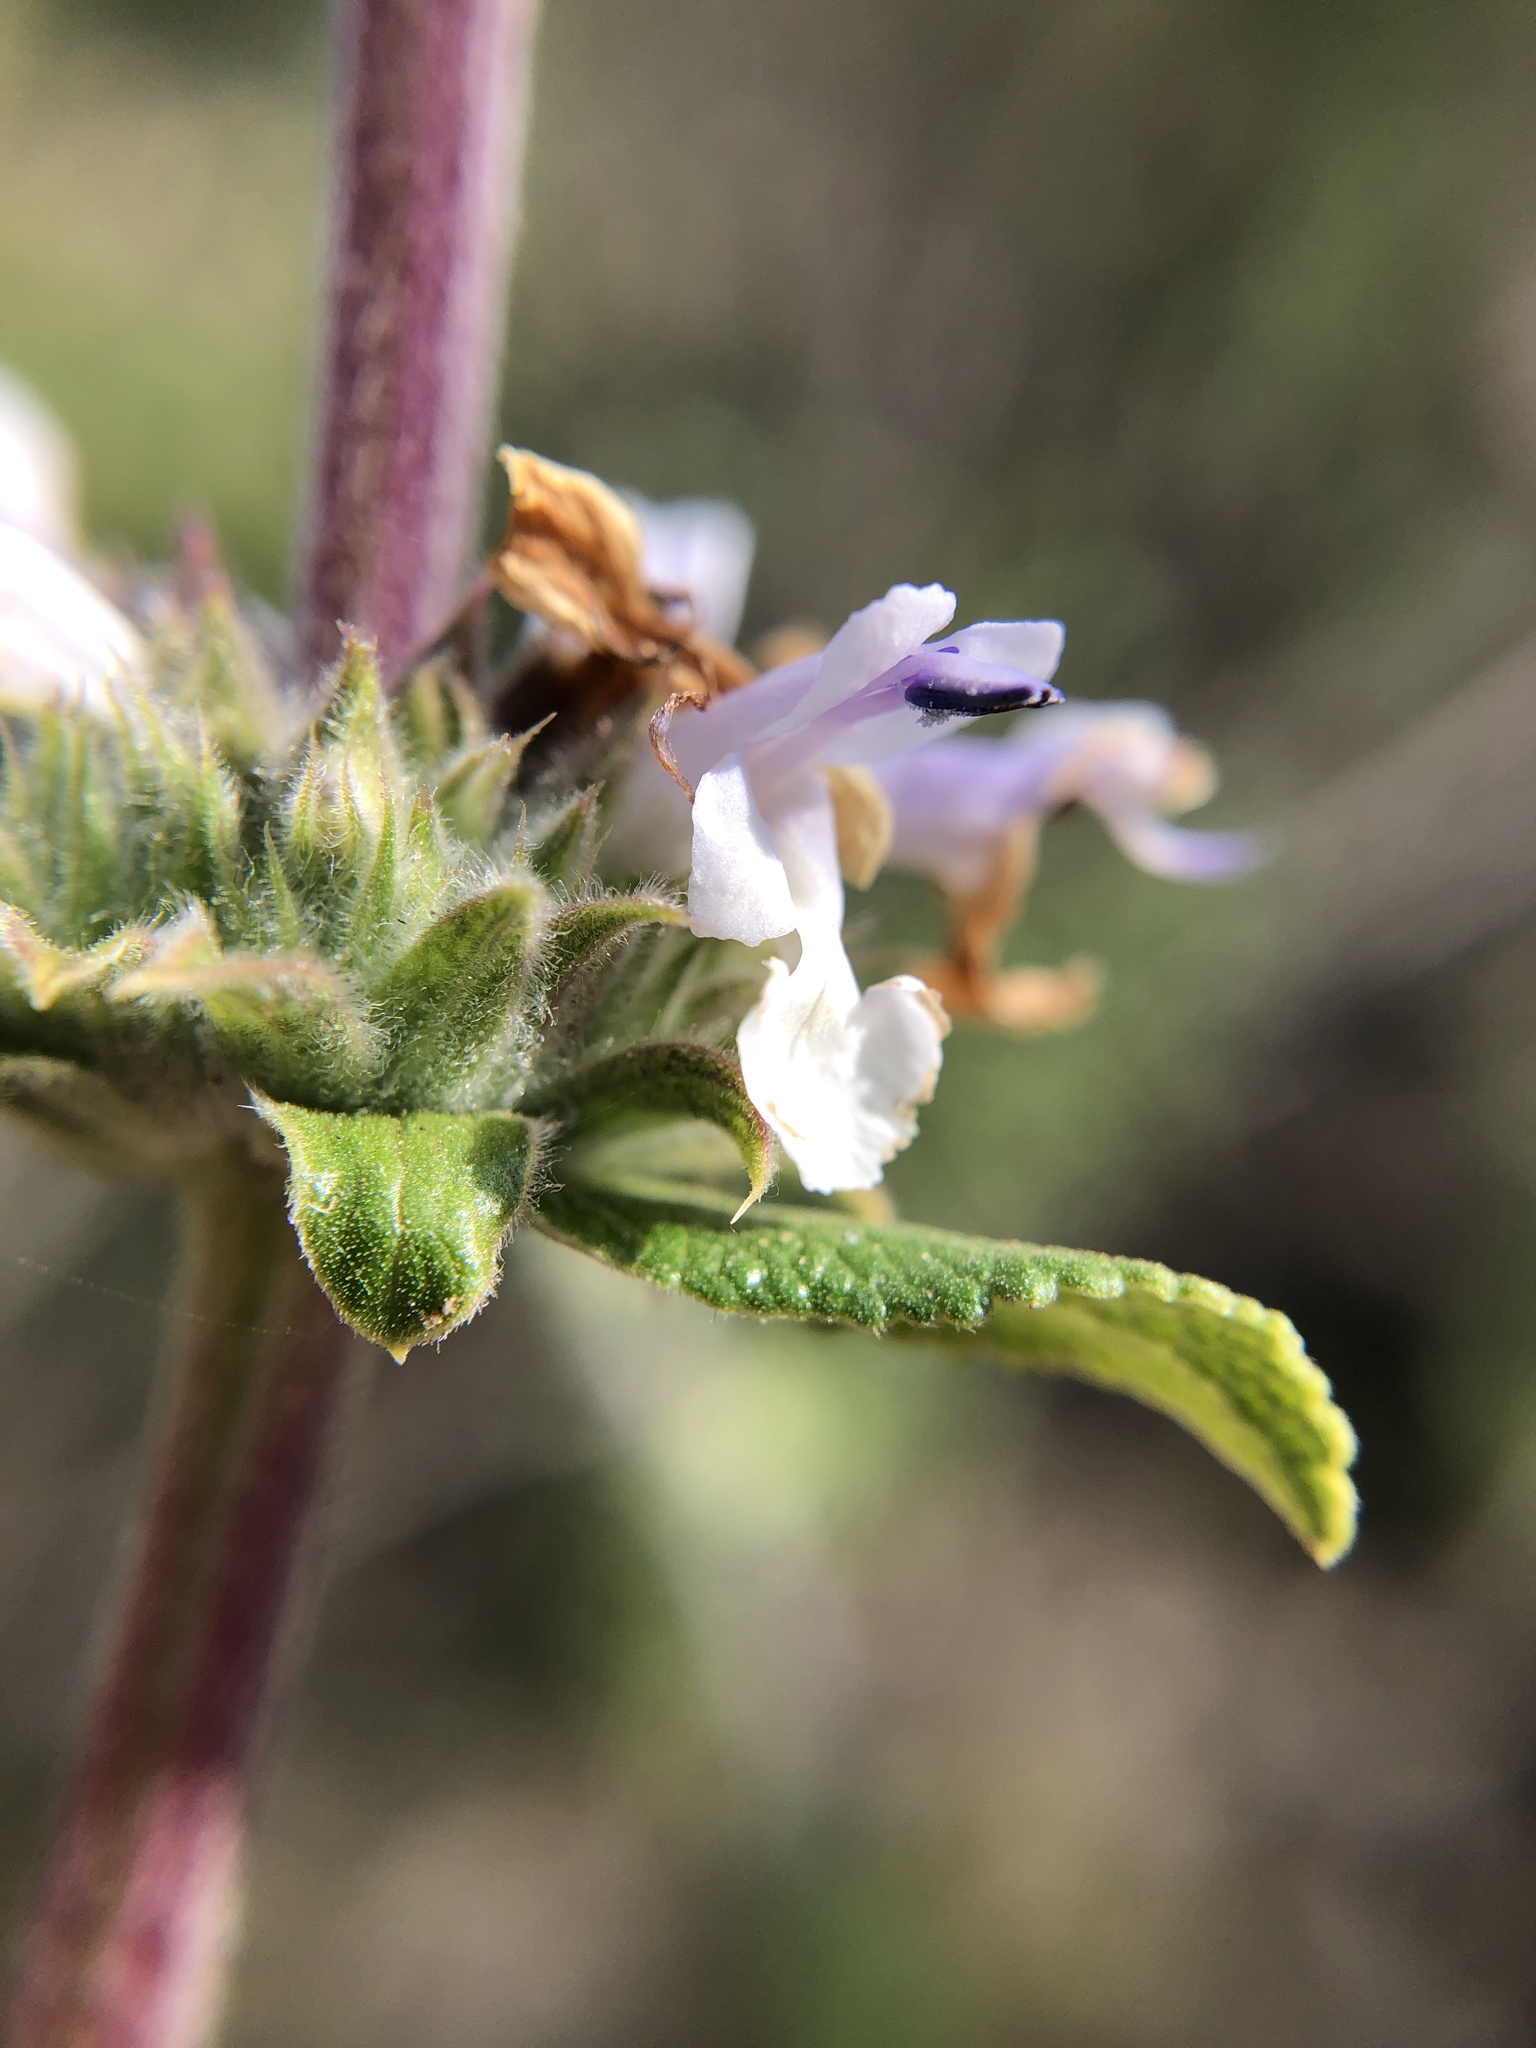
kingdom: Plantae
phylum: Tracheophyta
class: Magnoliopsida
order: Lamiales
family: Lamiaceae
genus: Salvia
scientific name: Salvia mellifera
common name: Black sage
